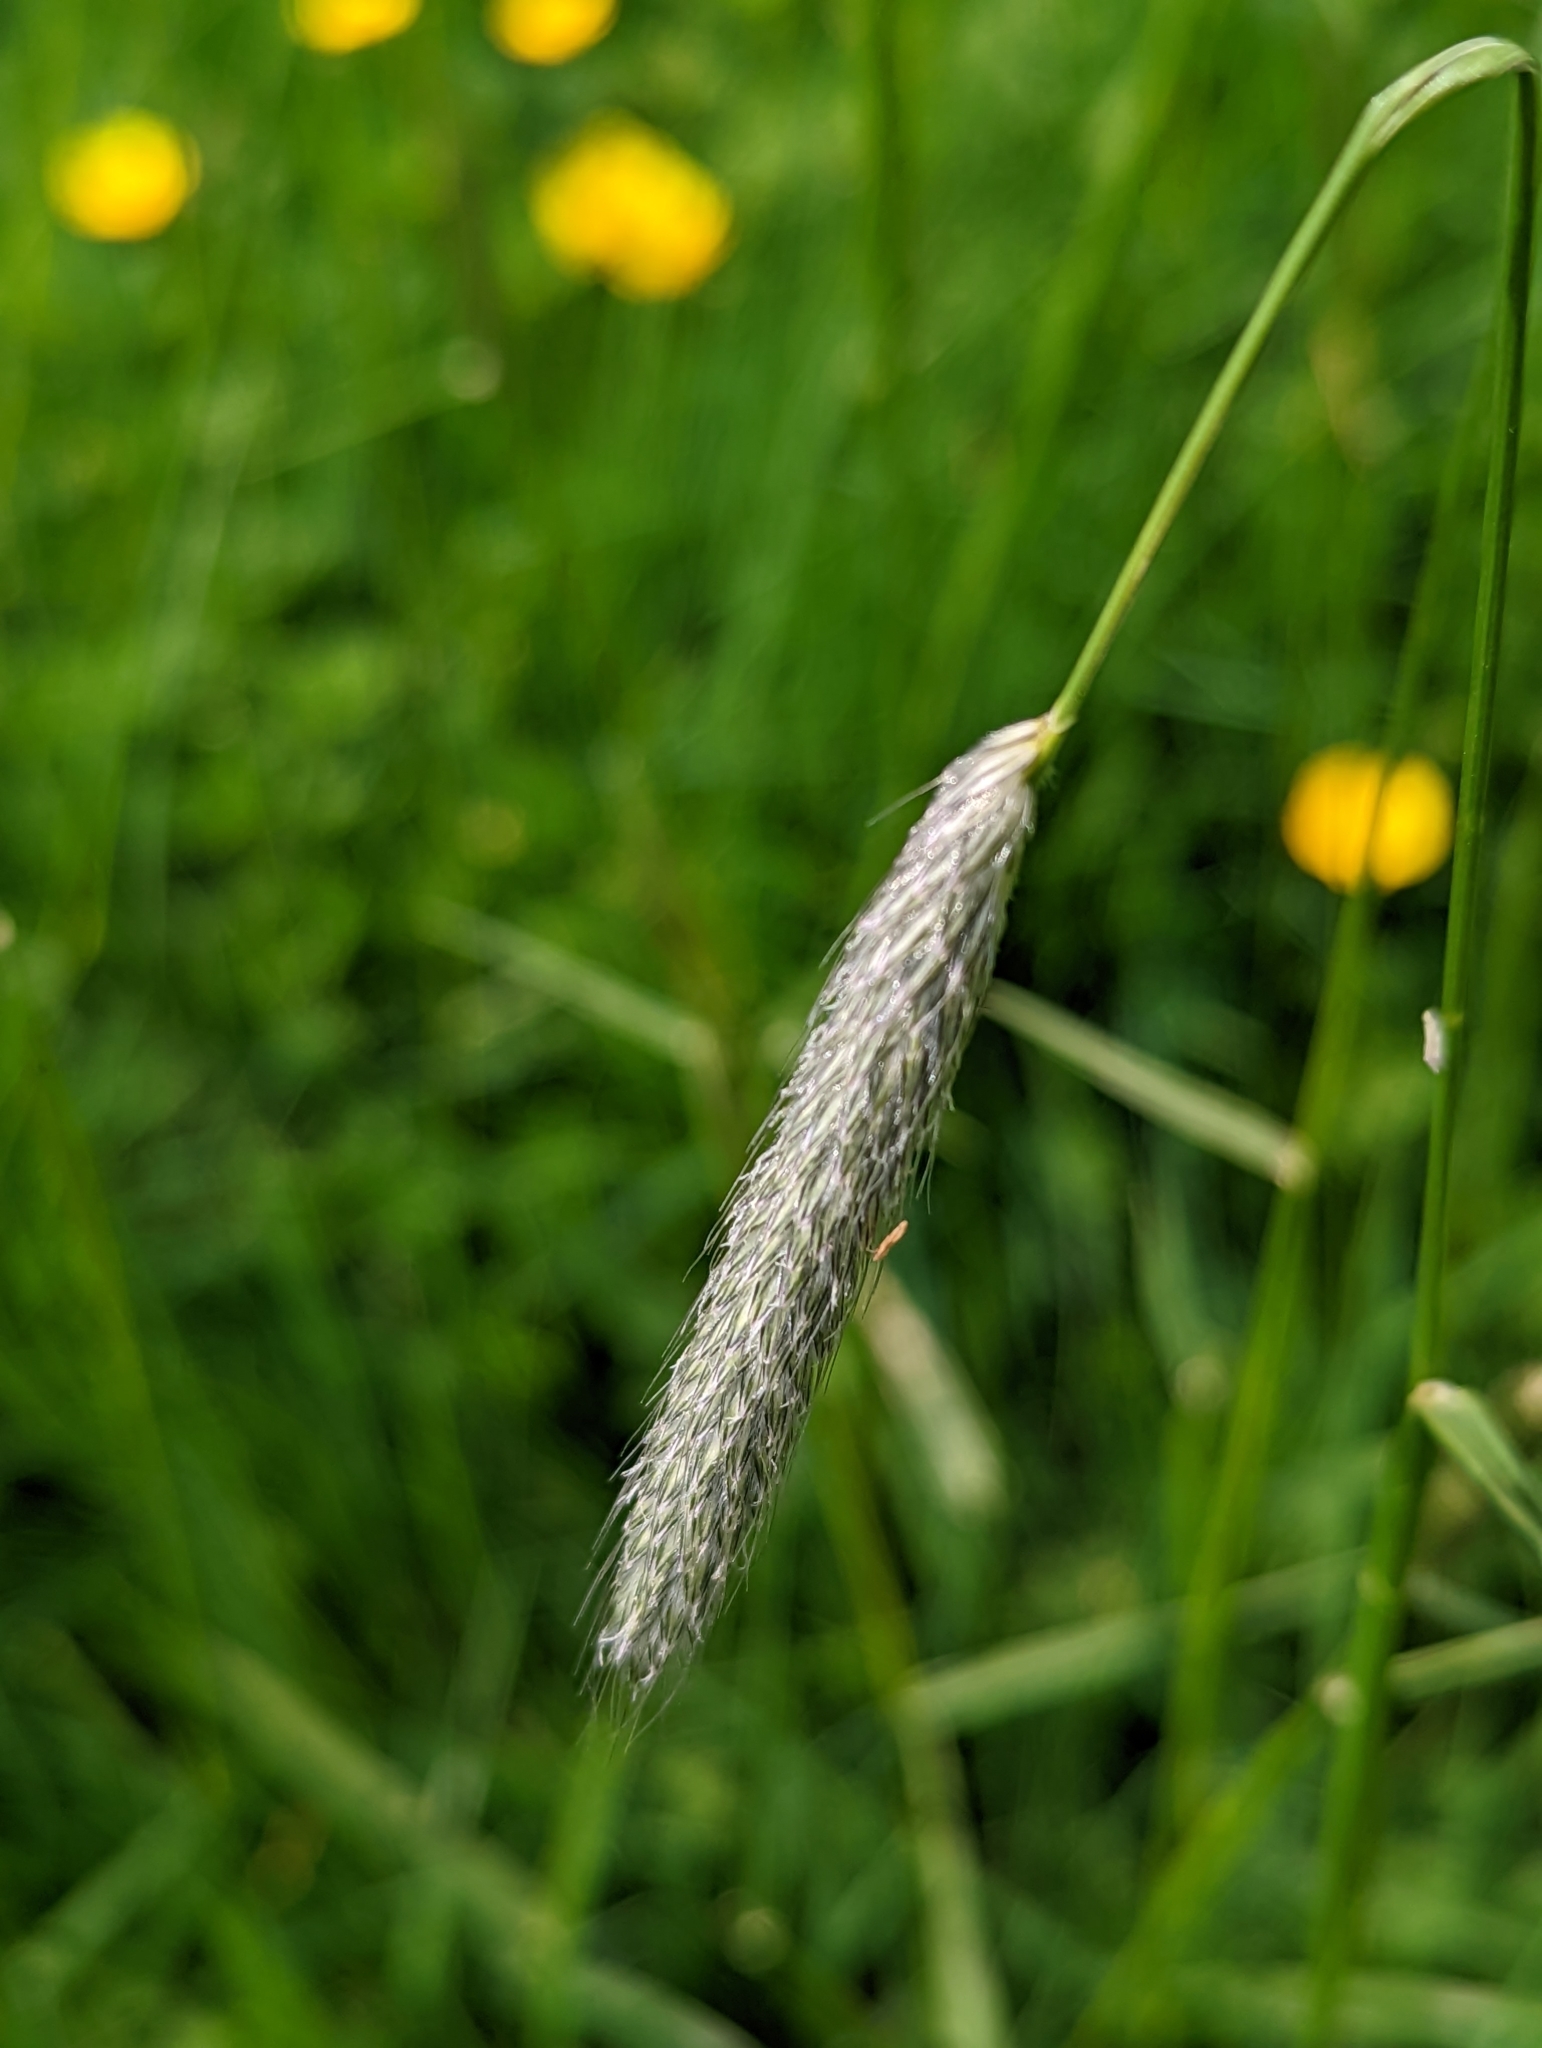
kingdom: Plantae
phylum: Tracheophyta
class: Liliopsida
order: Poales
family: Poaceae
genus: Alopecurus
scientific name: Alopecurus pratensis
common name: Meadow foxtail
